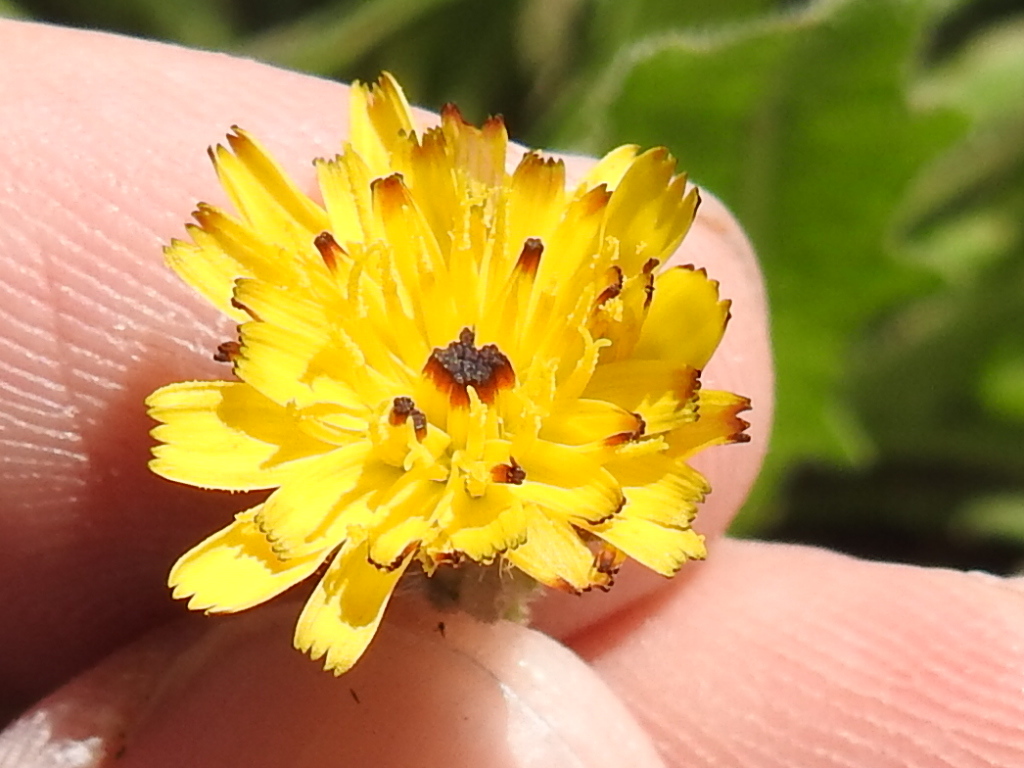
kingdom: Plantae
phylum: Tracheophyta
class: Magnoliopsida
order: Asterales
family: Asteraceae
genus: Hedypnois
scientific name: Hedypnois rhagadioloides
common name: Cretan weed
